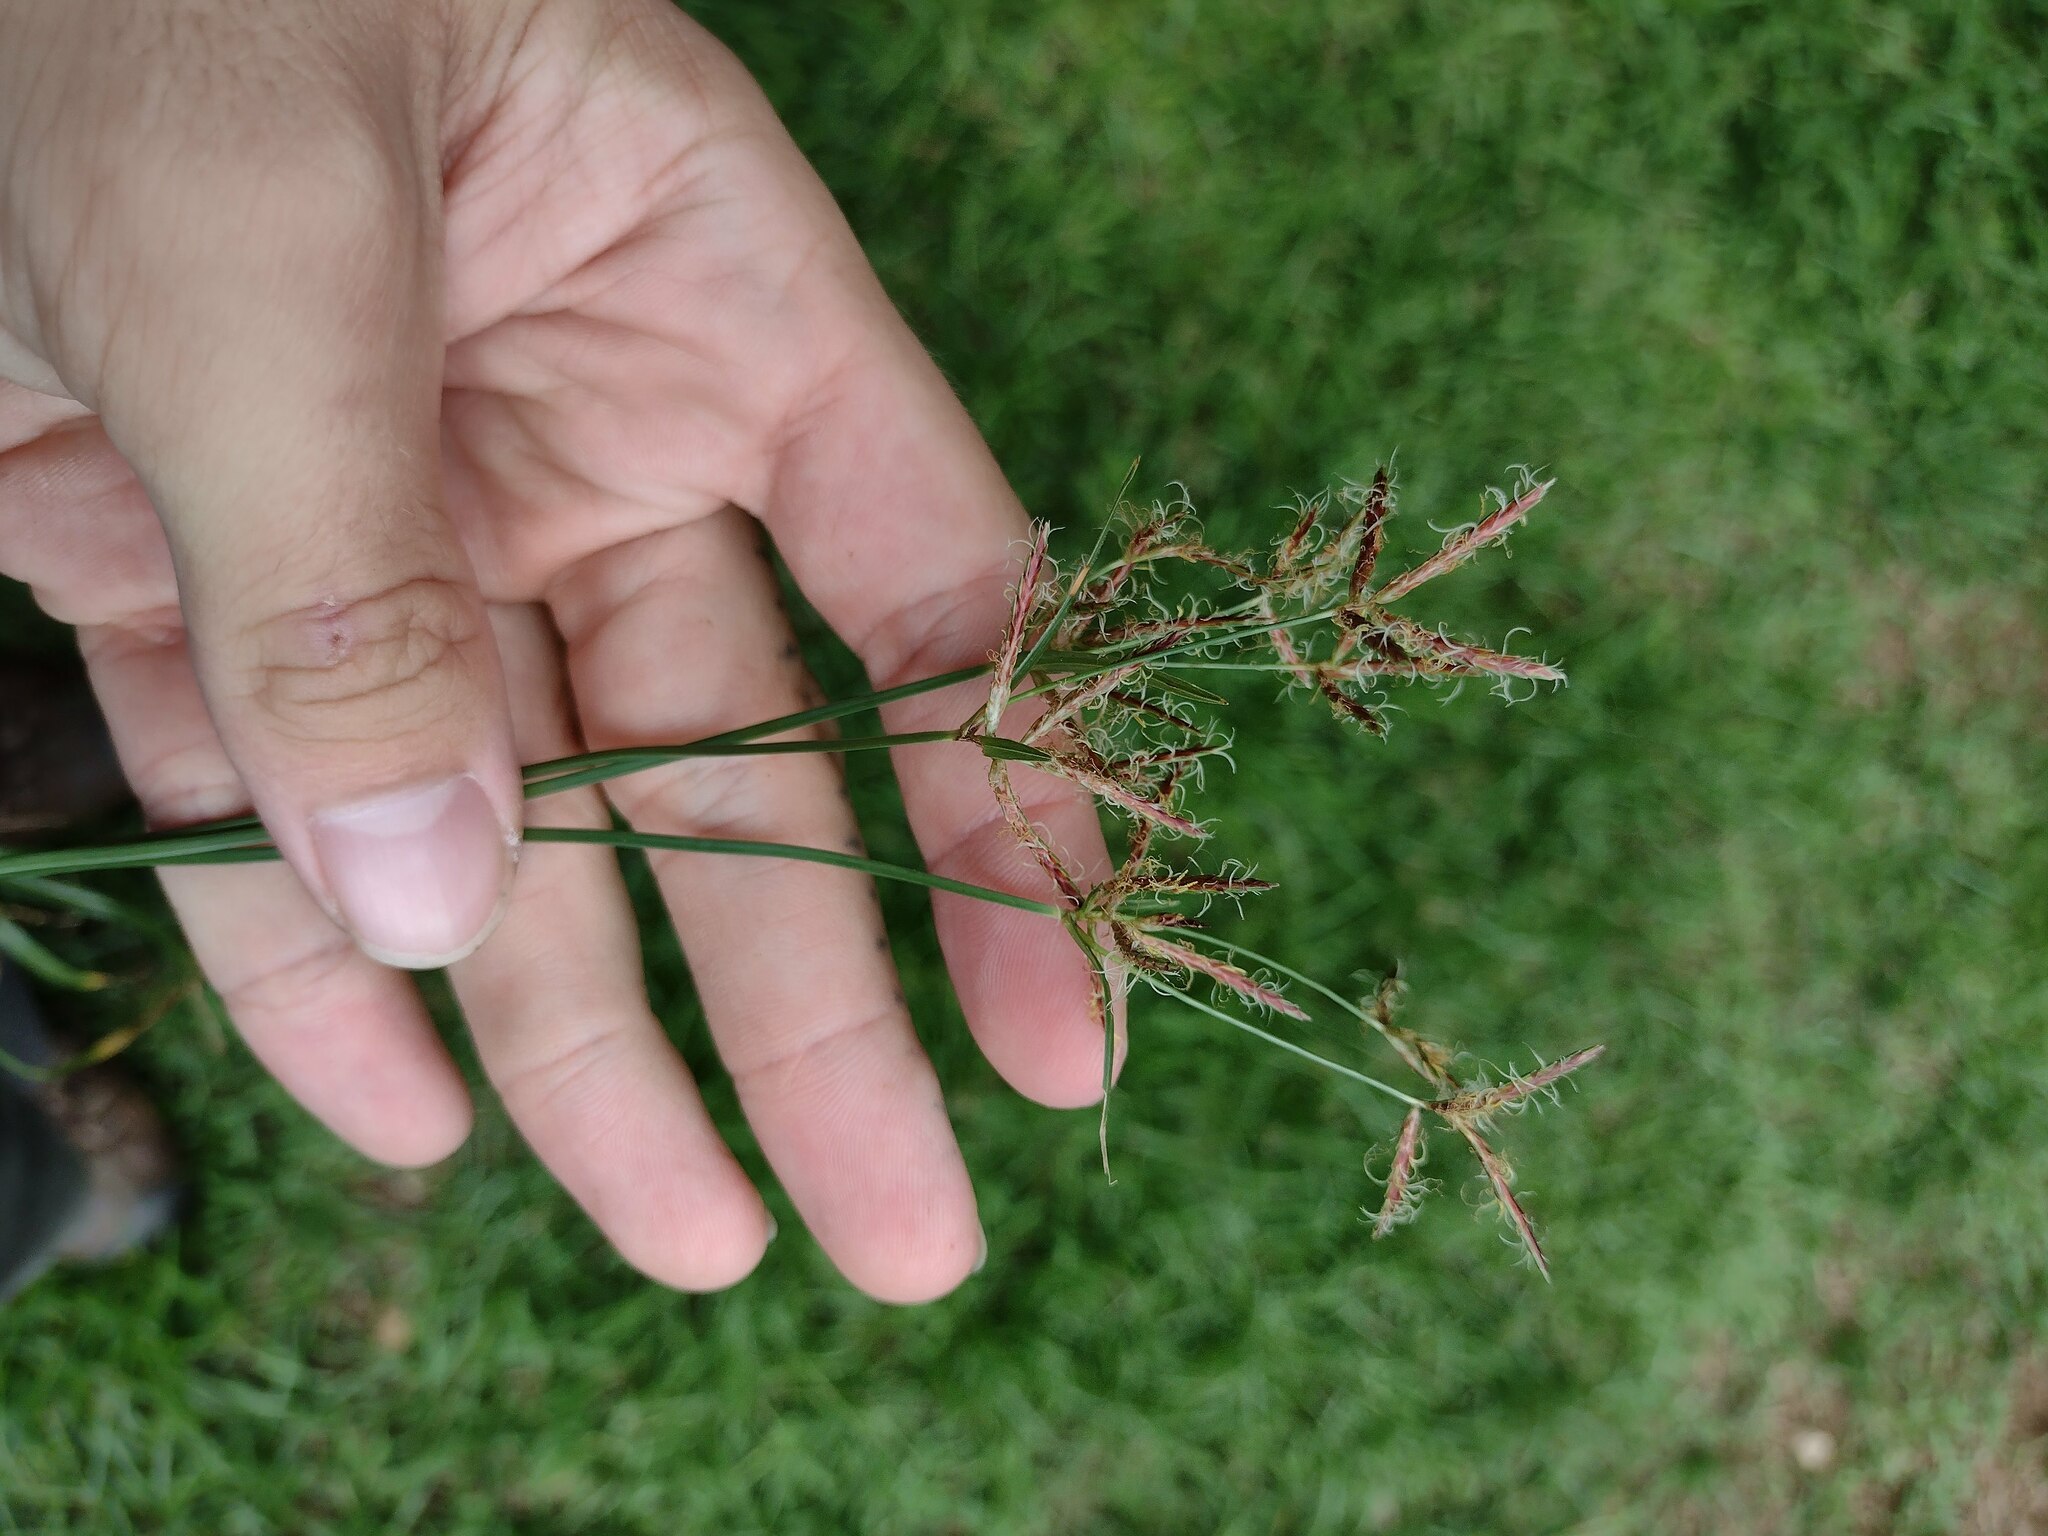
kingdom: Plantae
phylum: Tracheophyta
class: Liliopsida
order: Poales
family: Cyperaceae
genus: Cyperus
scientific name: Cyperus rotundus
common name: Nutgrass
